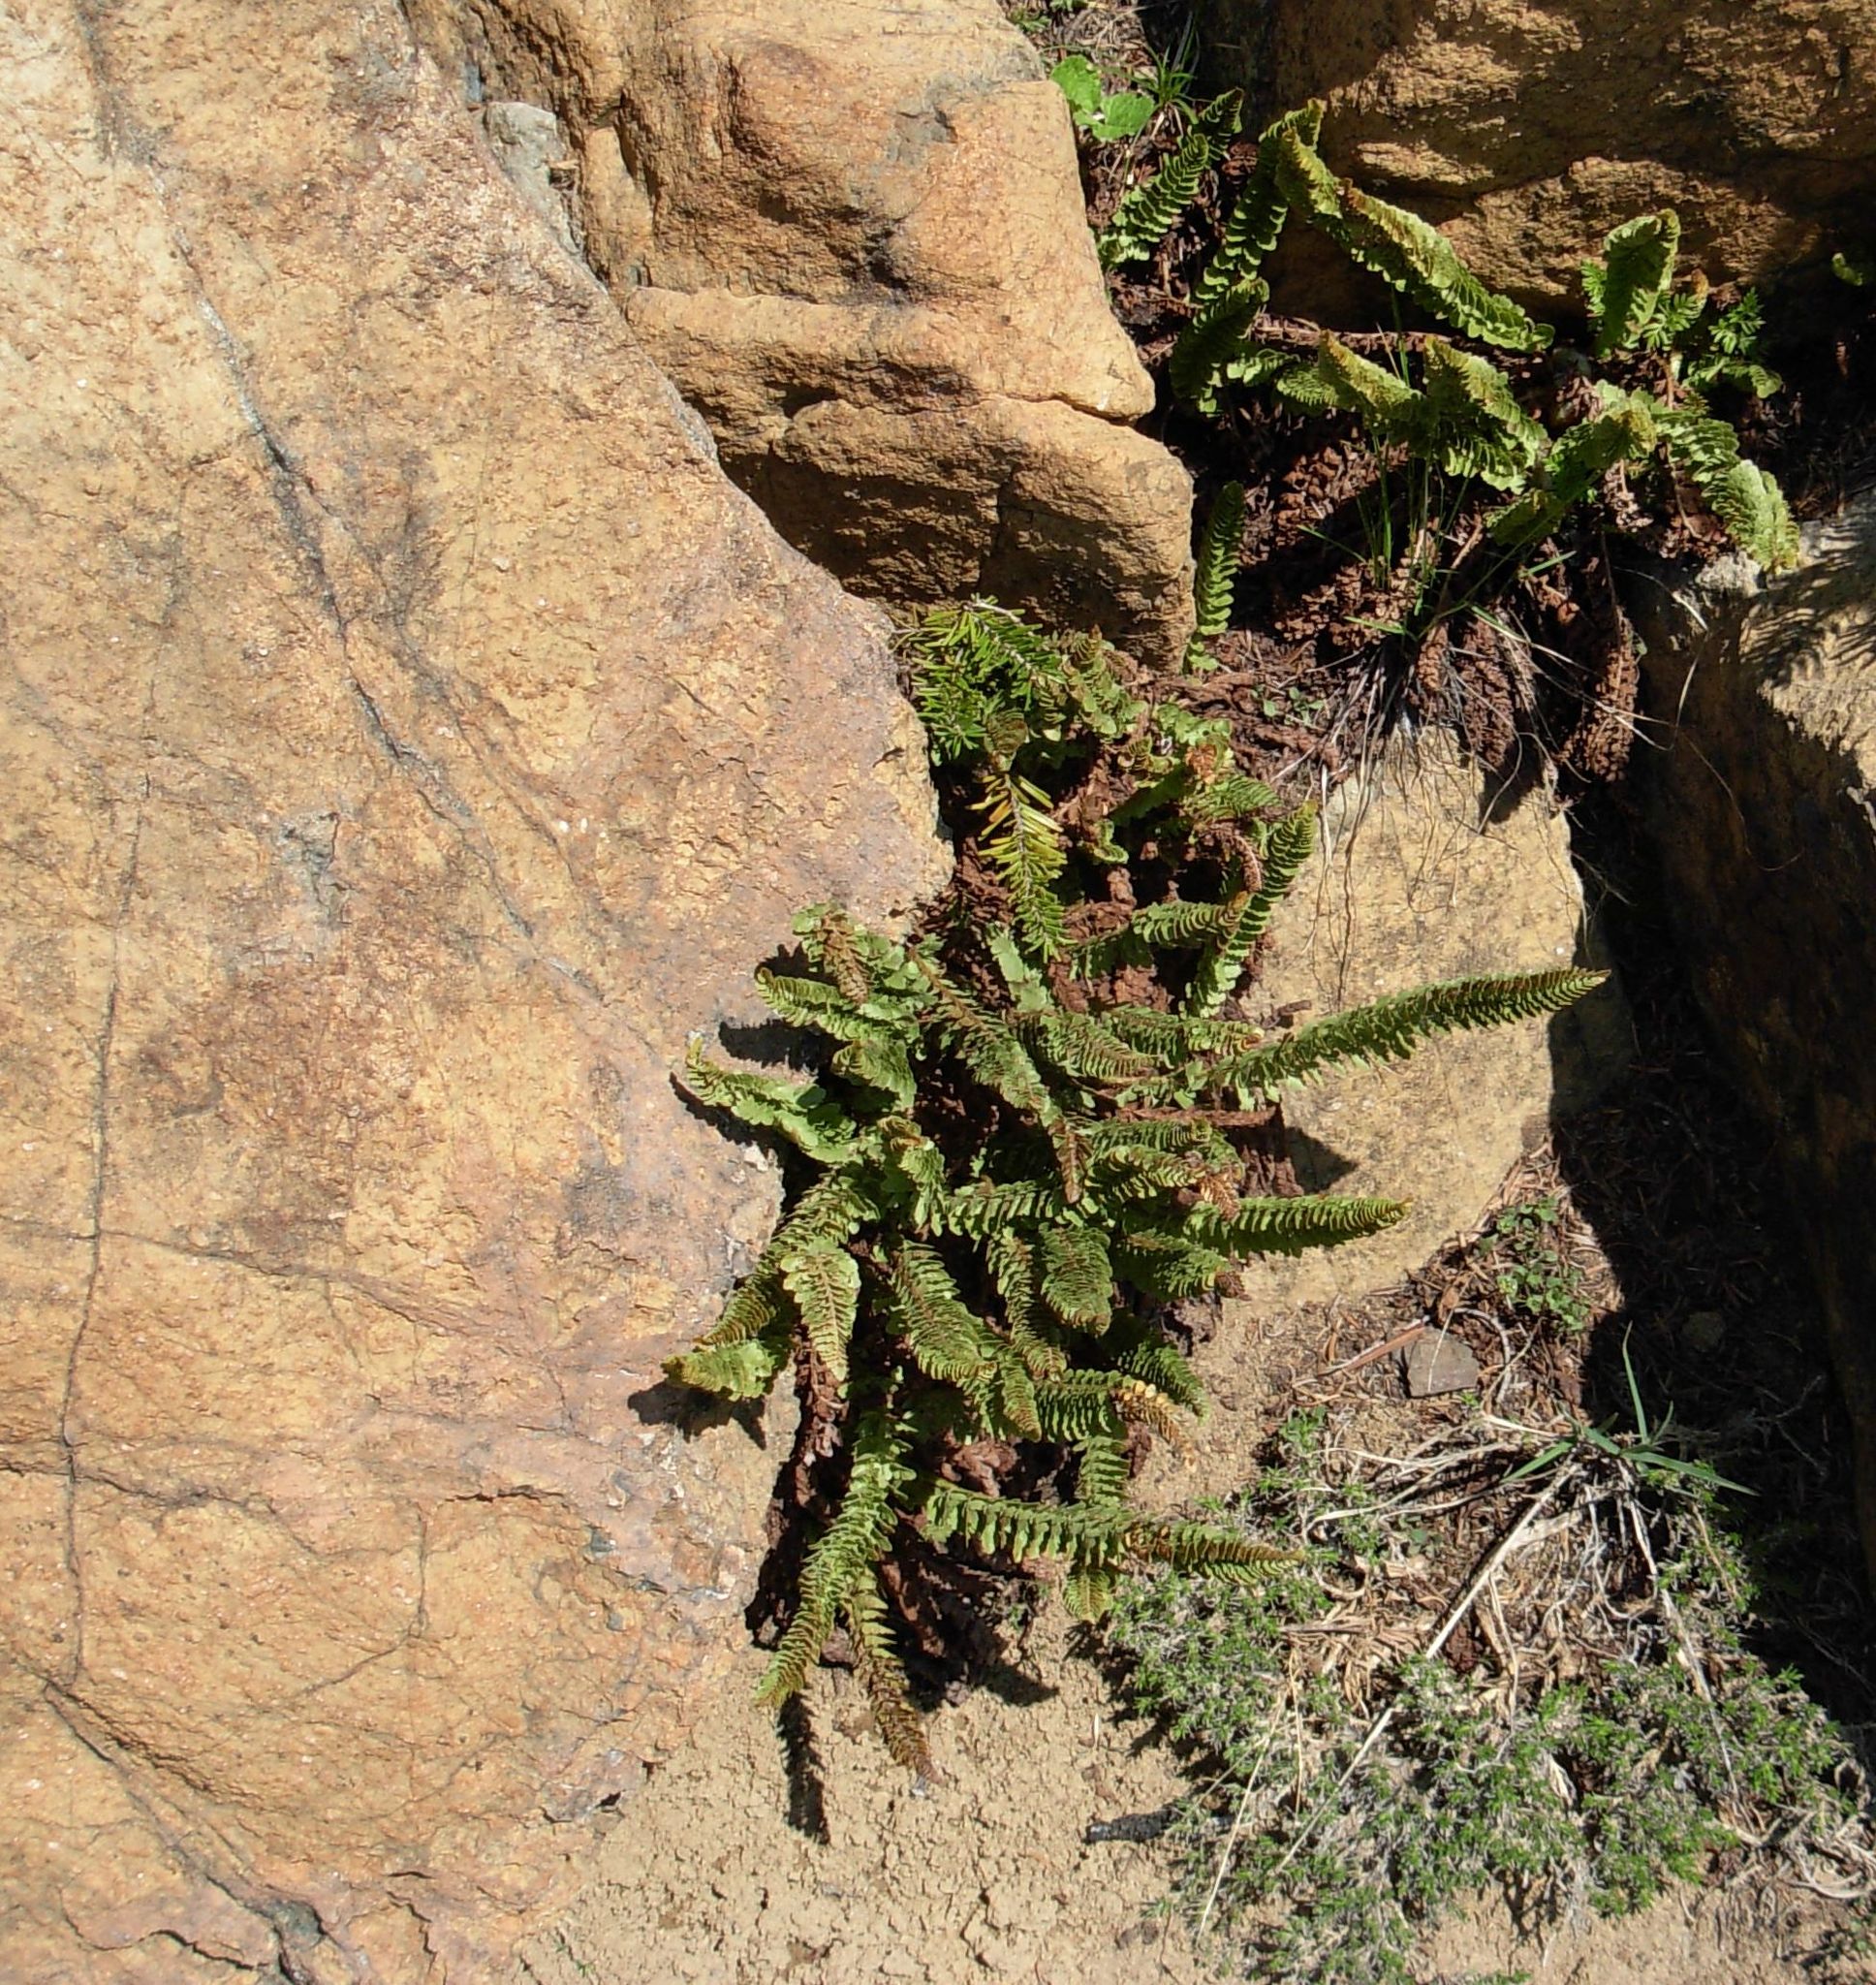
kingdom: Plantae
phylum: Tracheophyta
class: Polypodiopsida
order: Polypodiales
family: Dryopteridaceae
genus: Polystichum
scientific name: Polystichum lemmonii
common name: Lemmon's holly fern
